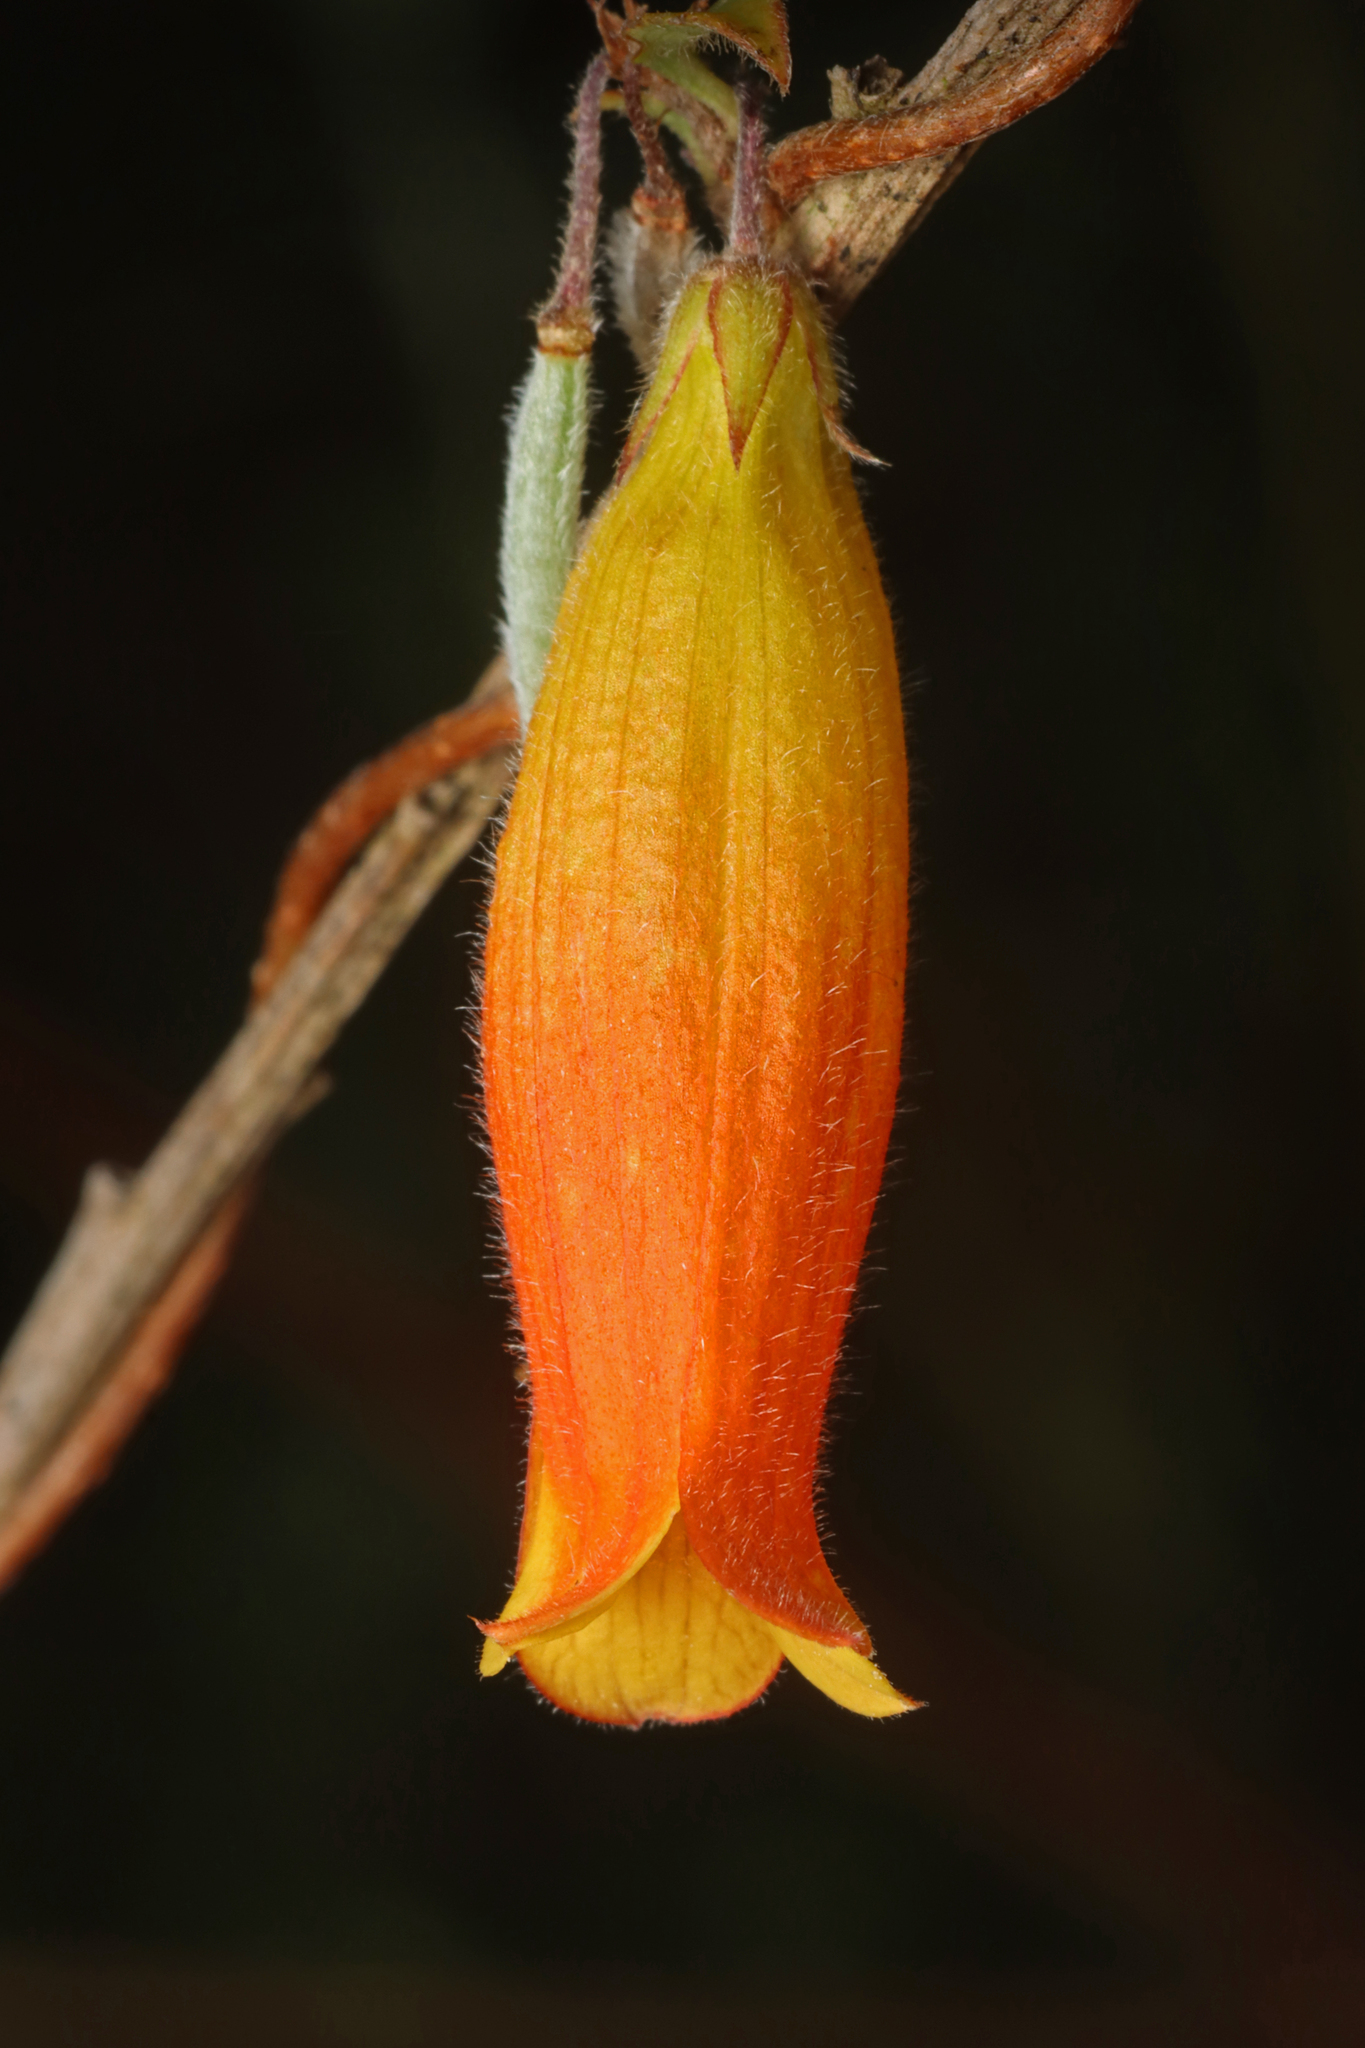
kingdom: Plantae
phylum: Tracheophyta
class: Magnoliopsida
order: Apiales
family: Pittosporaceae
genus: Marianthus
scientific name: Marianthus bignoniaceus
